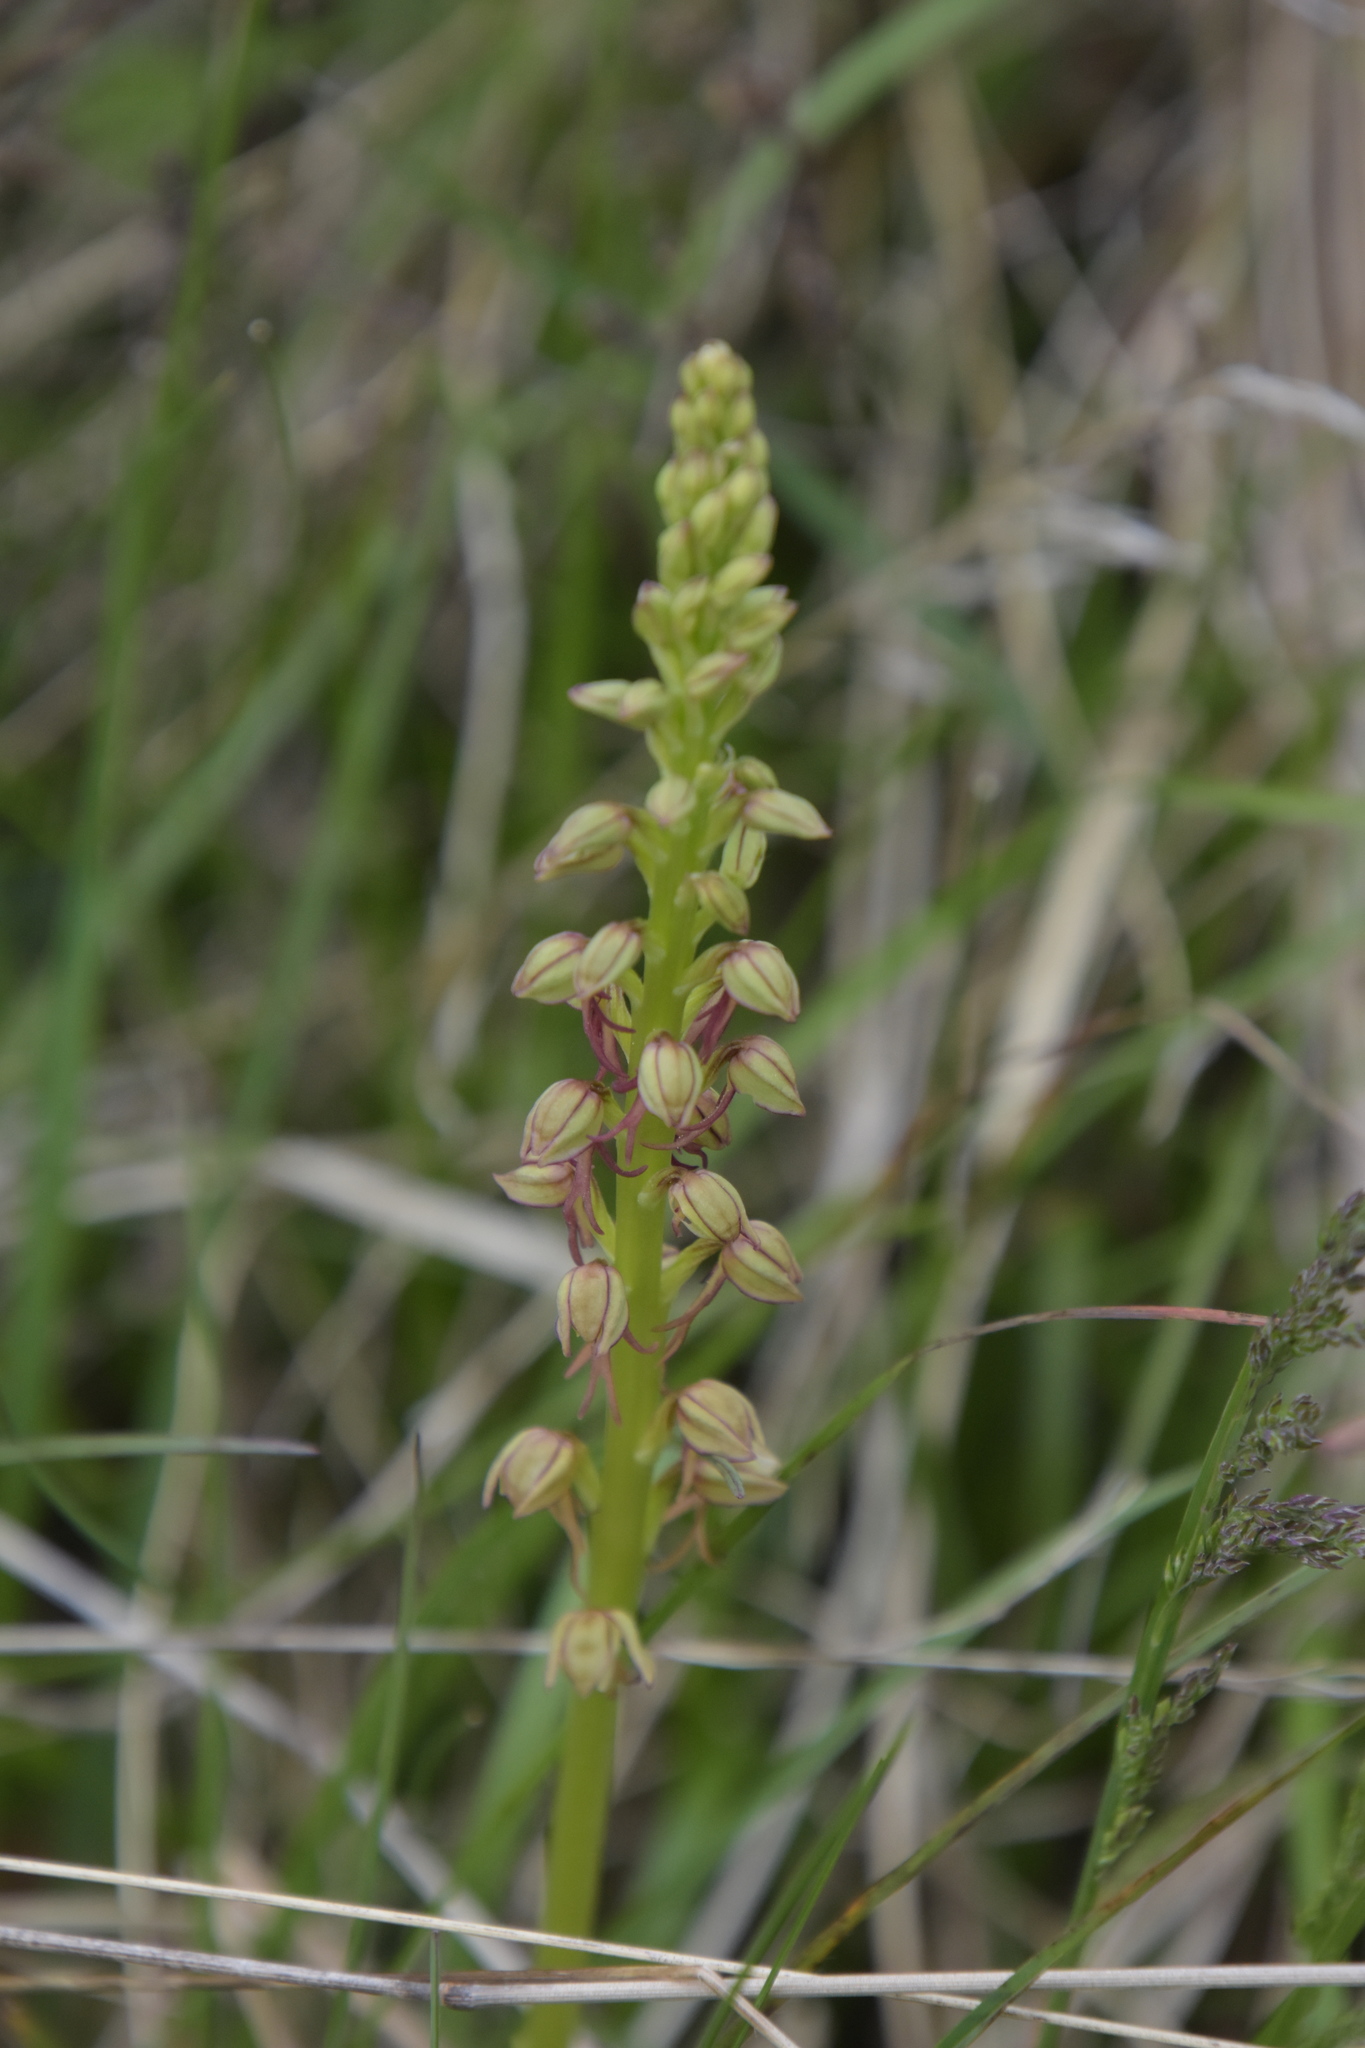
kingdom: Plantae
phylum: Tracheophyta
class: Liliopsida
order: Asparagales
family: Orchidaceae
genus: Orchis
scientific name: Orchis anthropophora
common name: Man orchid
